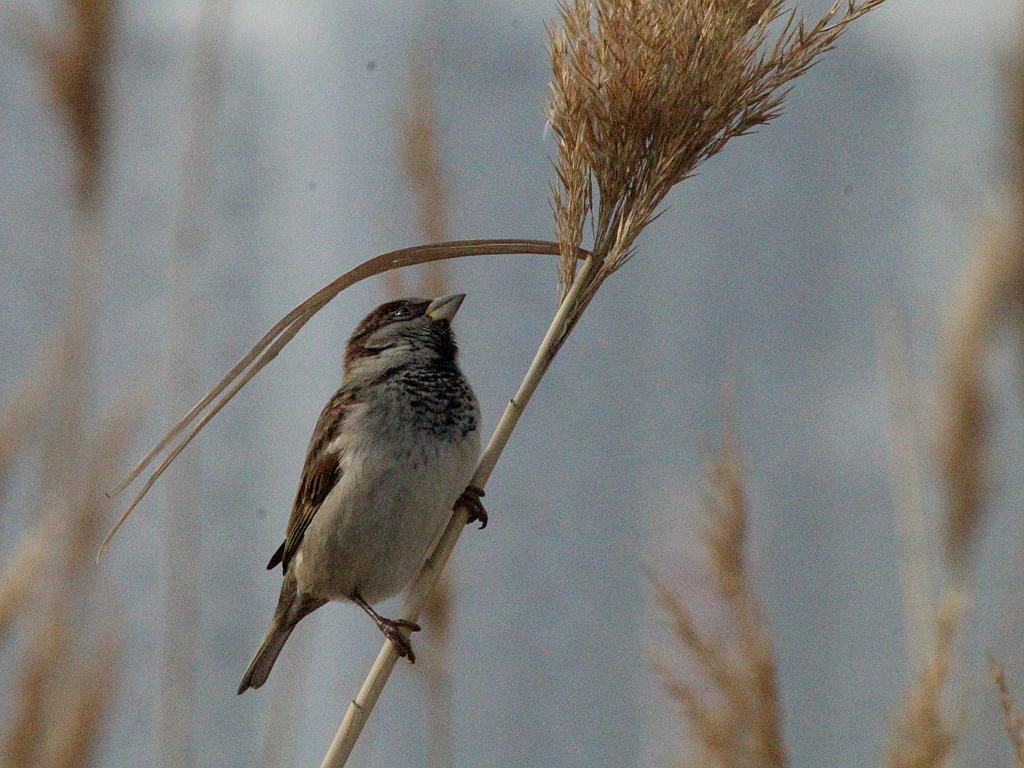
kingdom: Animalia
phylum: Chordata
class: Aves
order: Passeriformes
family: Passeridae
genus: Passer
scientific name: Passer domesticus
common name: House sparrow
